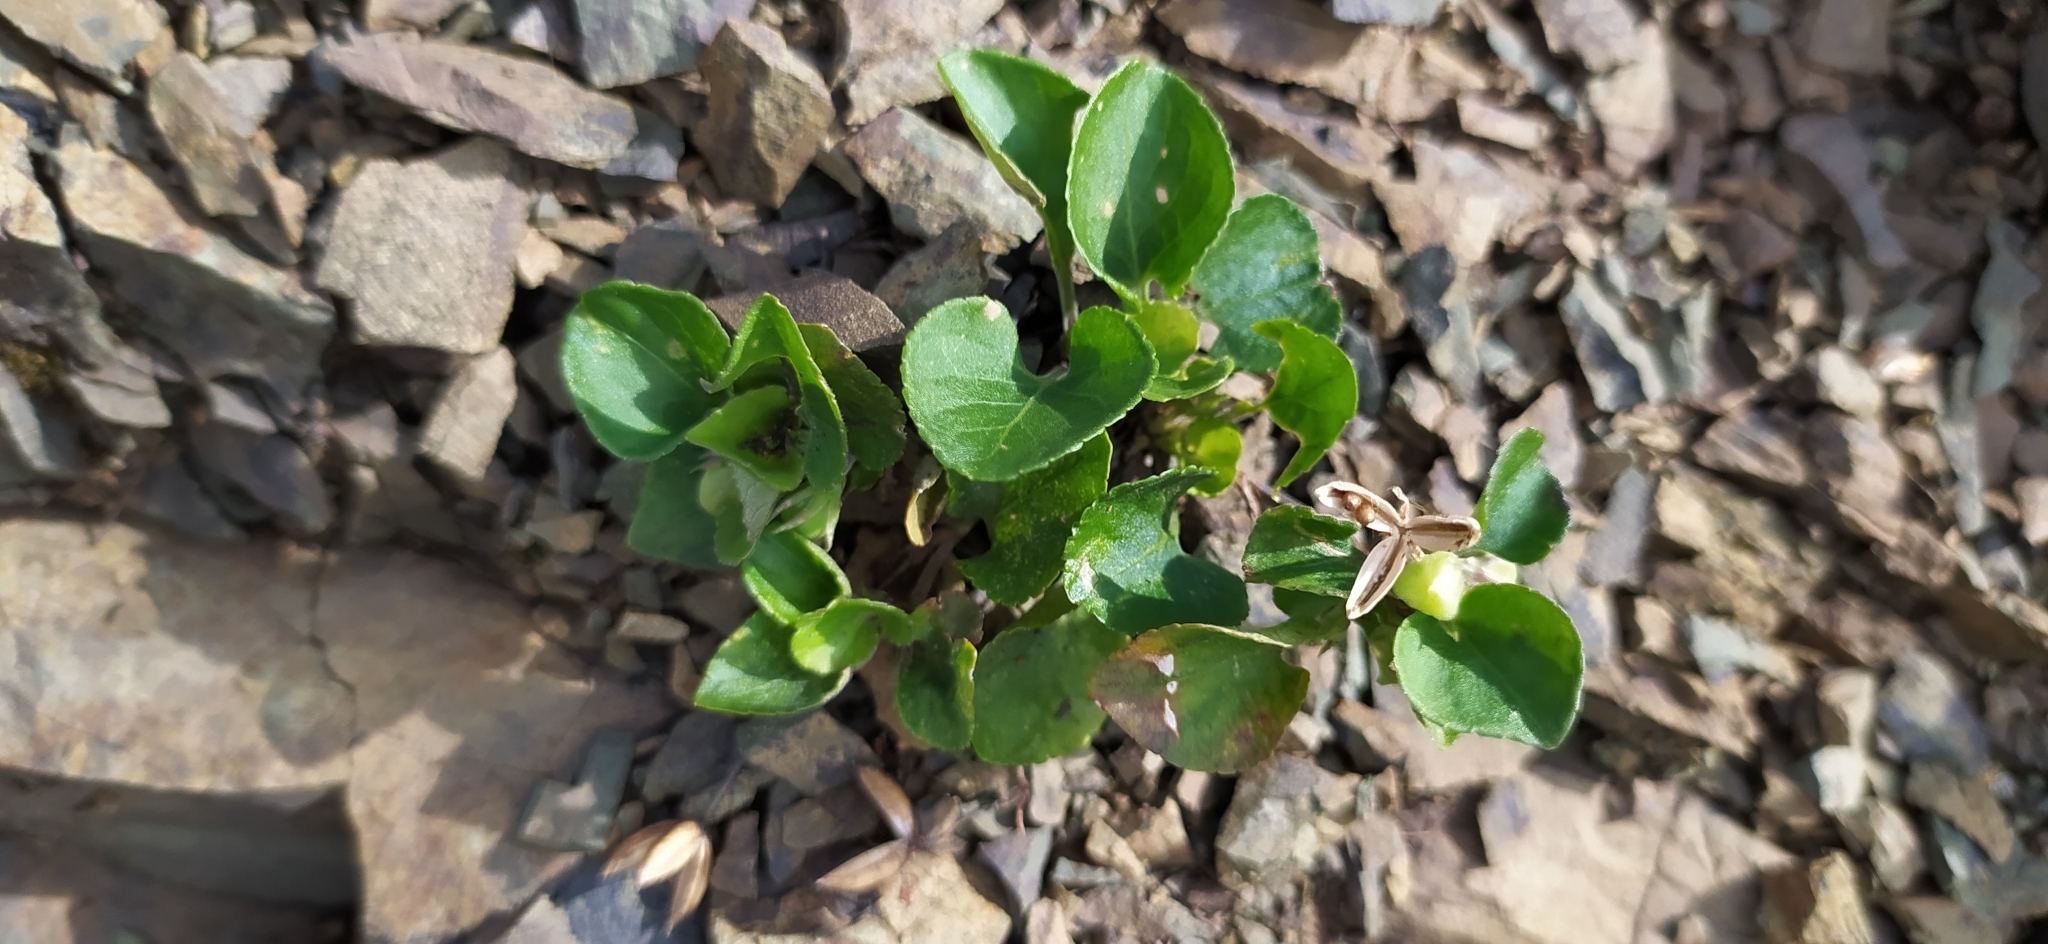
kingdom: Plantae
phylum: Tracheophyta
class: Magnoliopsida
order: Malpighiales
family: Violaceae
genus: Viola
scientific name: Viola rupestris
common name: Teesdale violet
